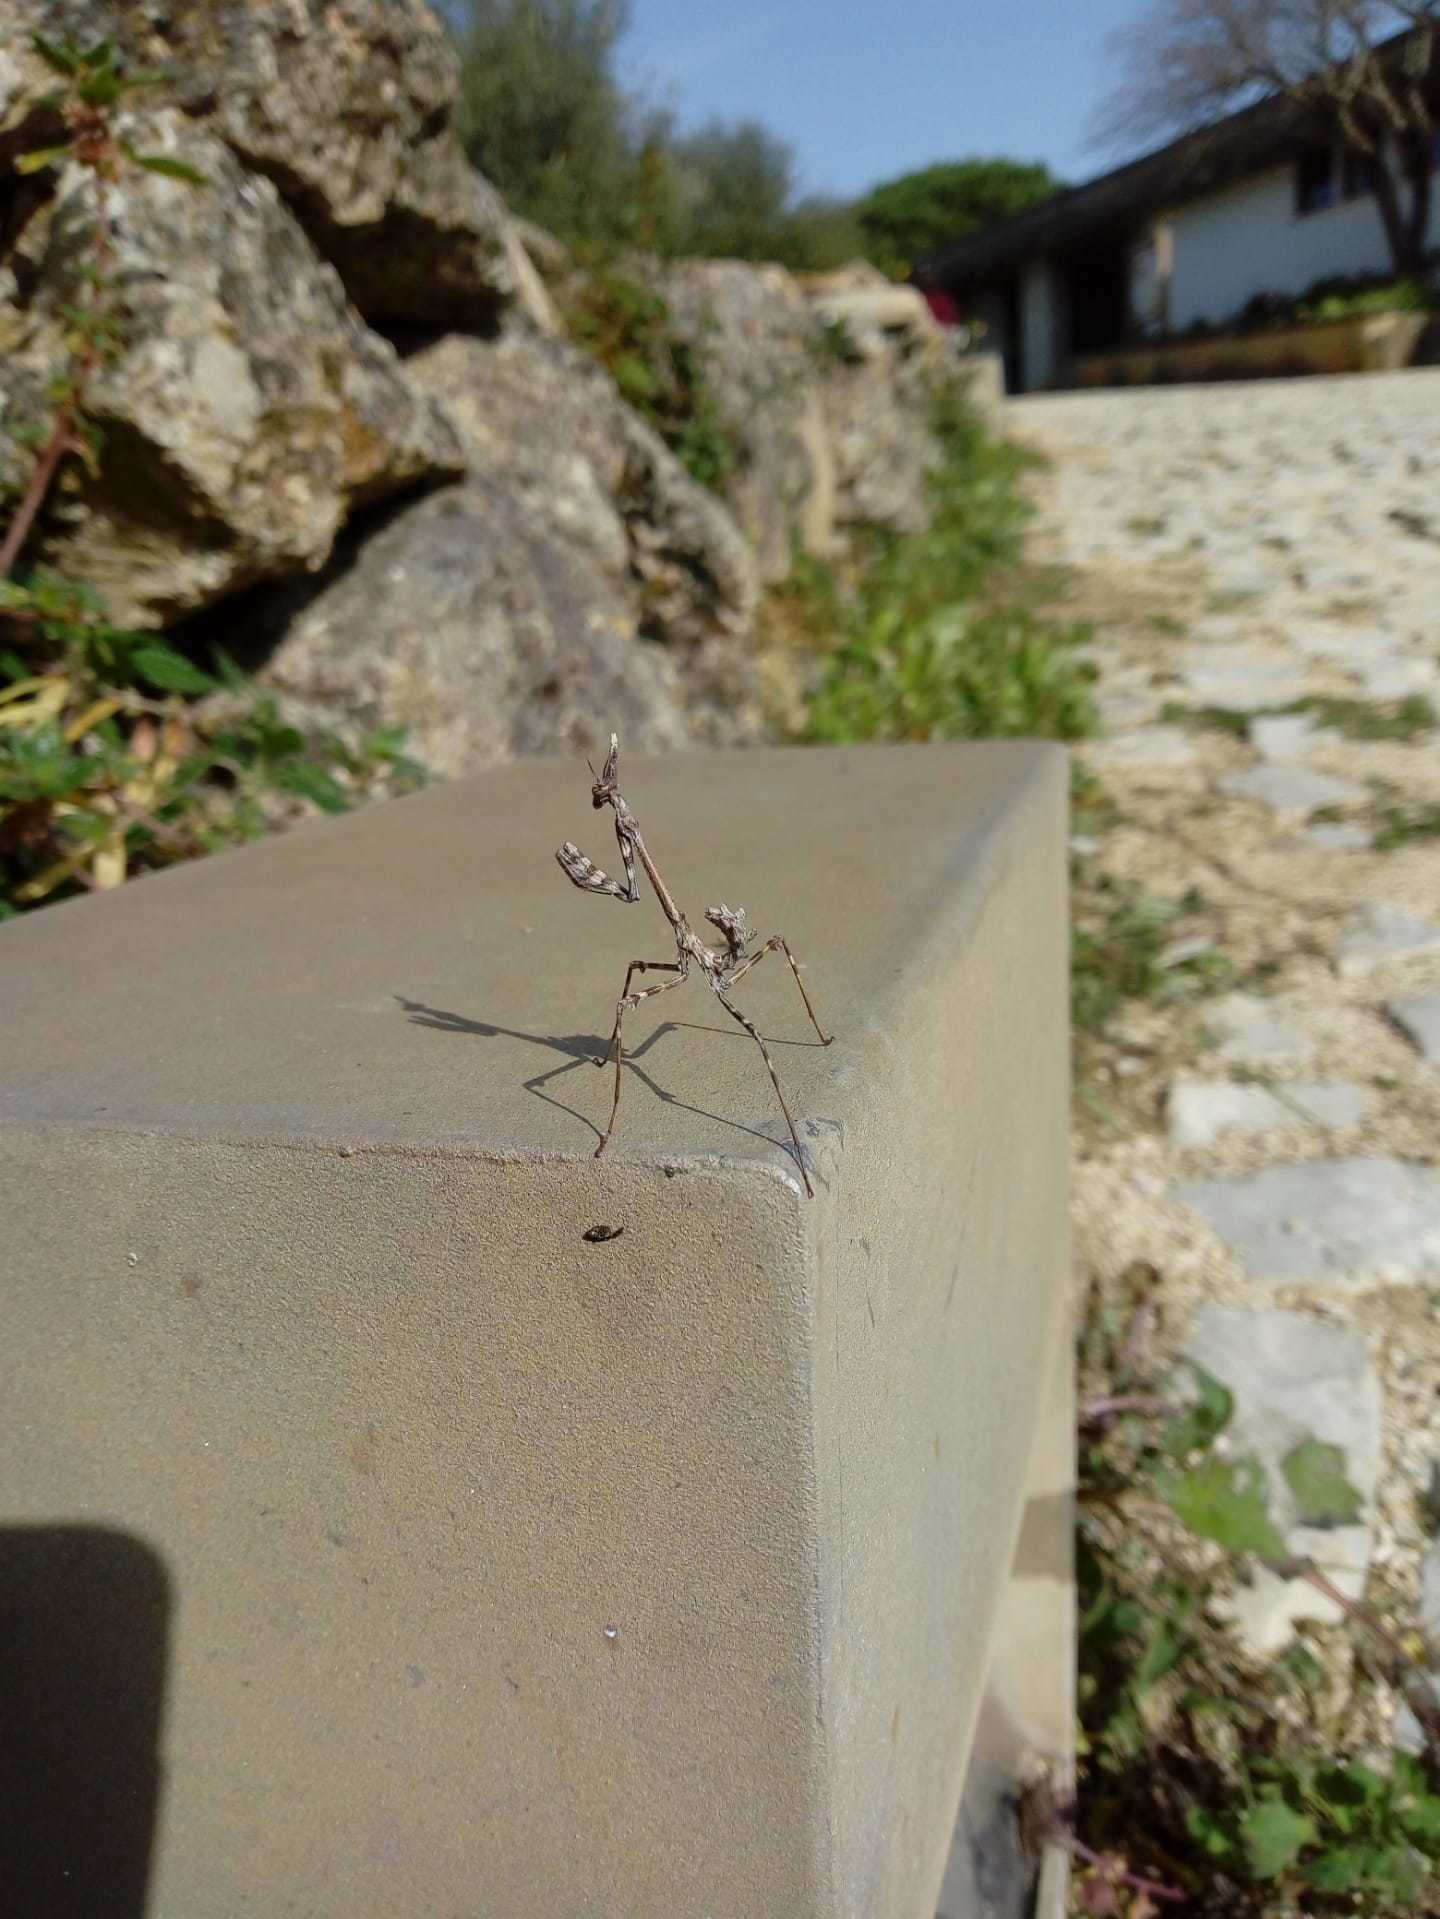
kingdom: Animalia
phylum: Arthropoda
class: Insecta
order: Mantodea
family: Empusidae
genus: Empusa
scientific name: Empusa pennata
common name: Conehead mantis
